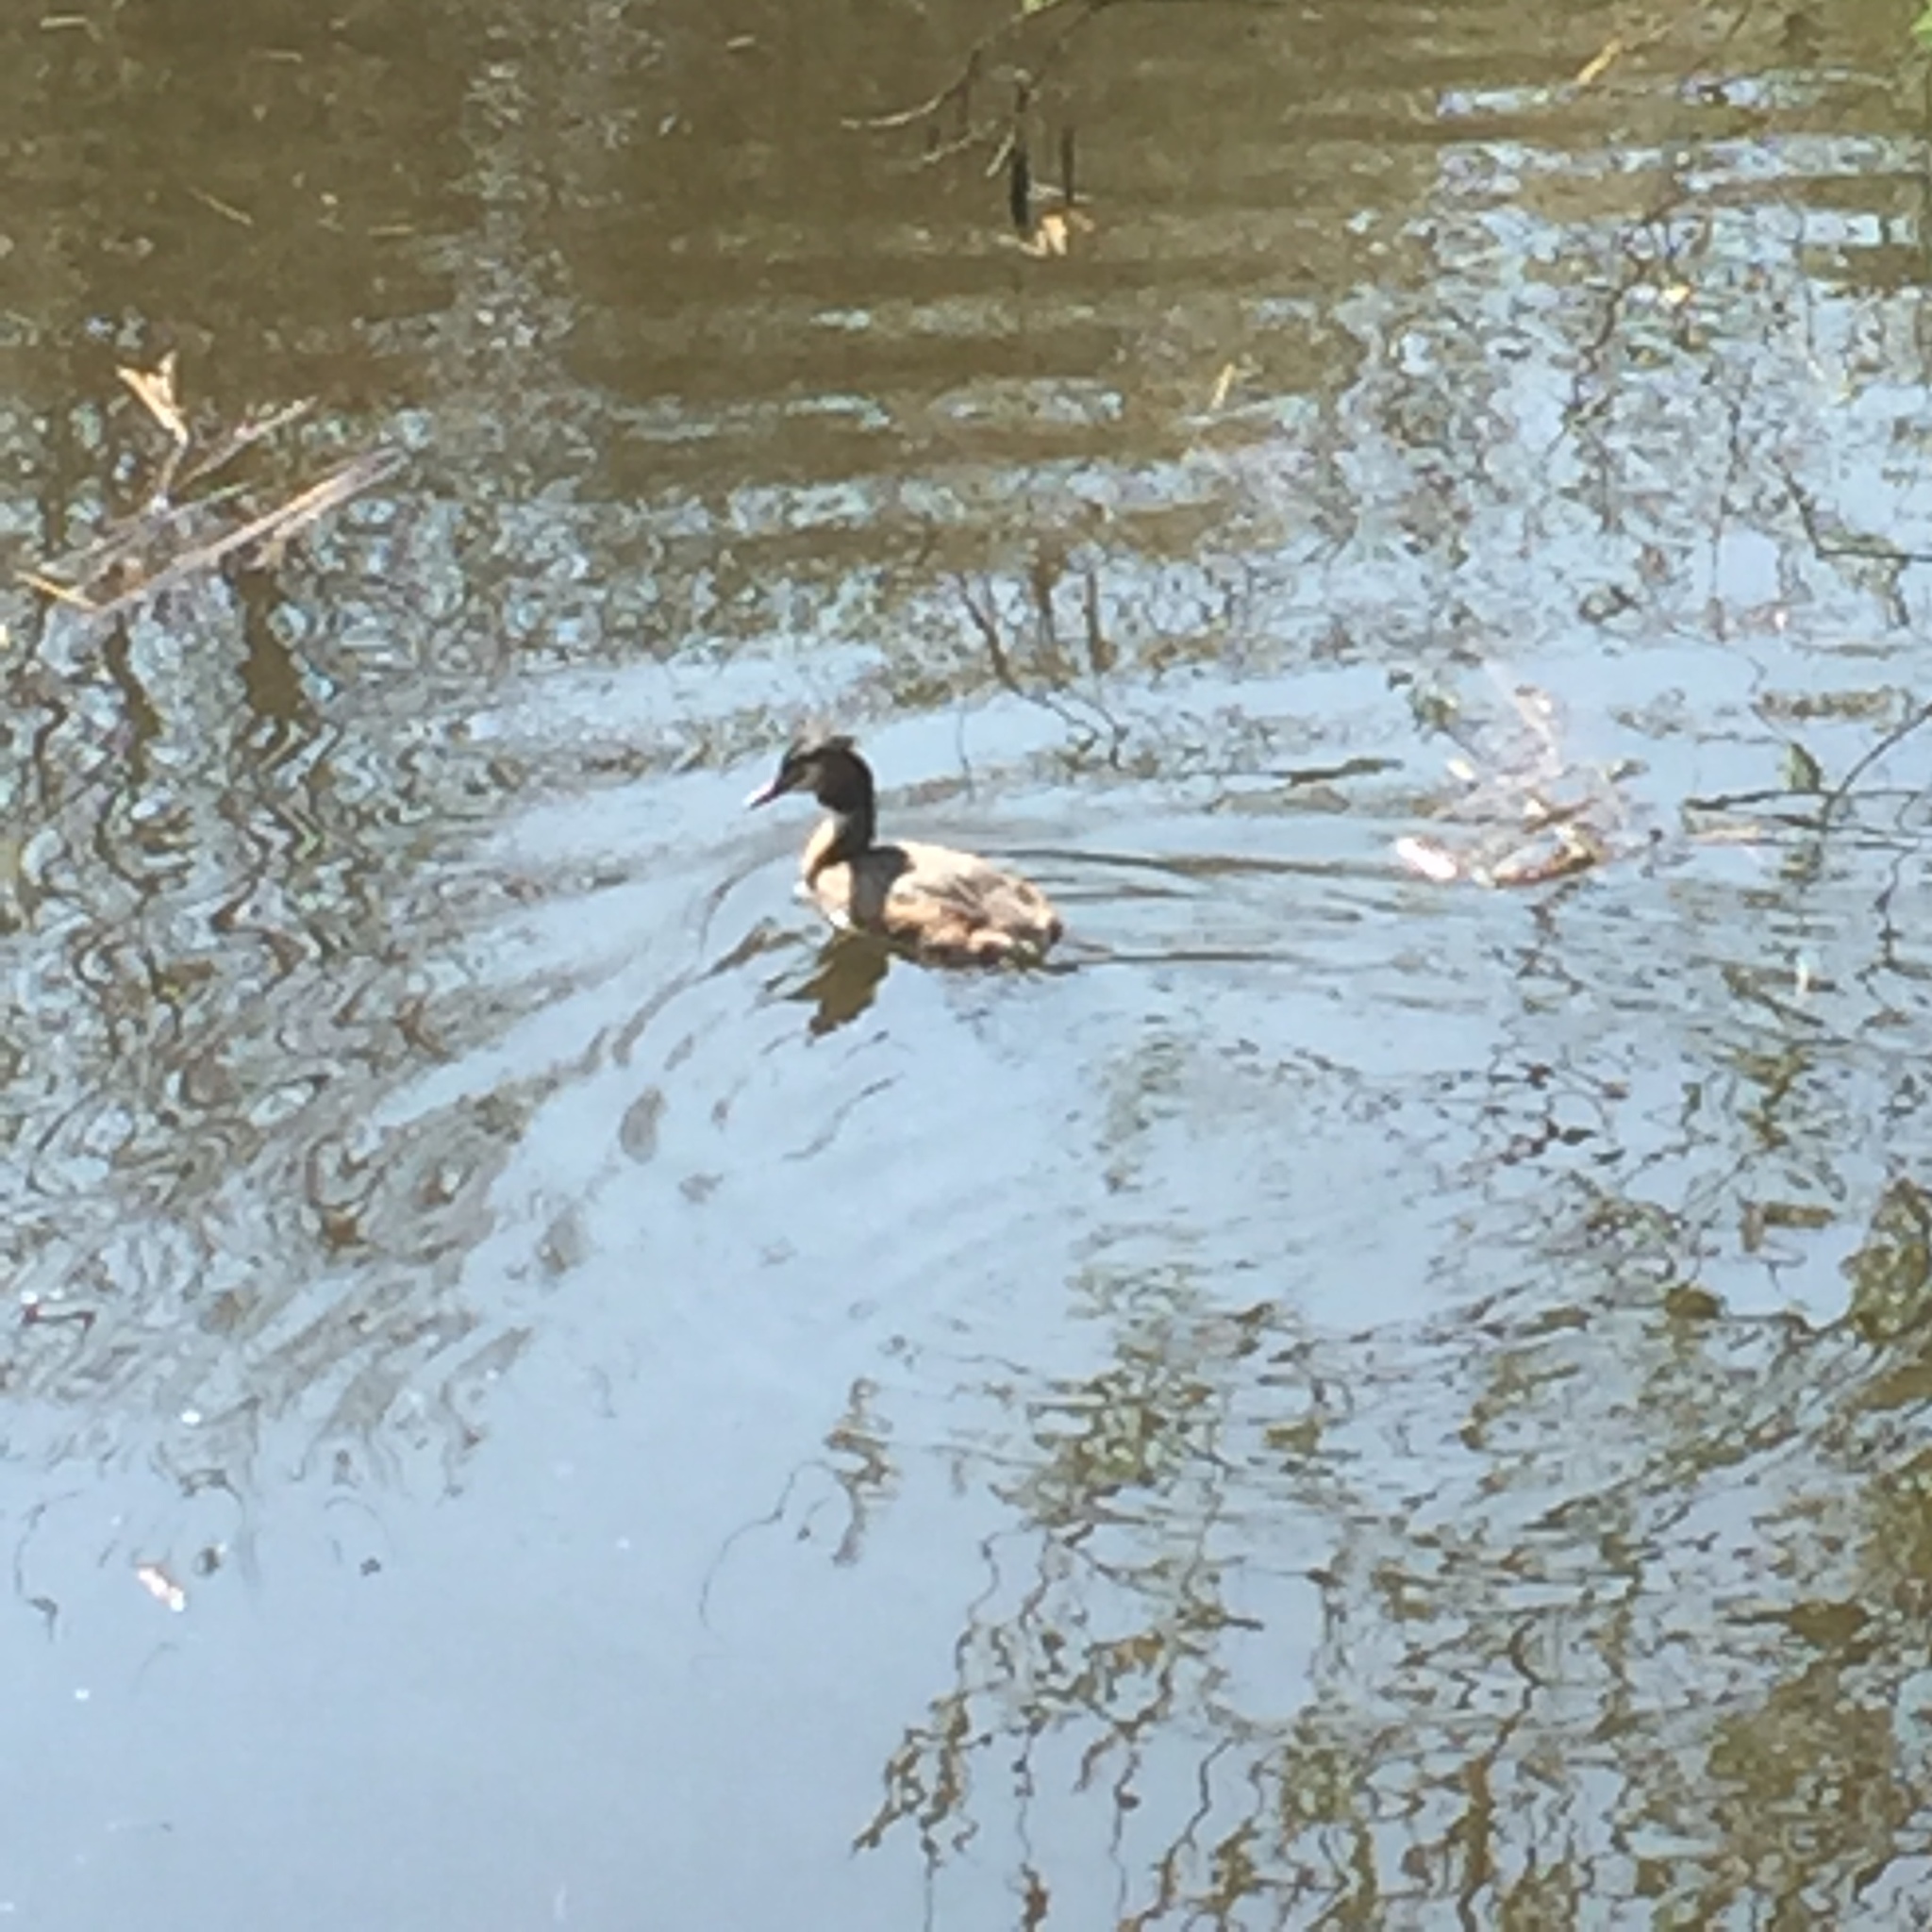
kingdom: Animalia
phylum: Chordata
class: Aves
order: Podicipediformes
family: Podicipedidae
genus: Podiceps
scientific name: Podiceps cristatus
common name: Great crested grebe
